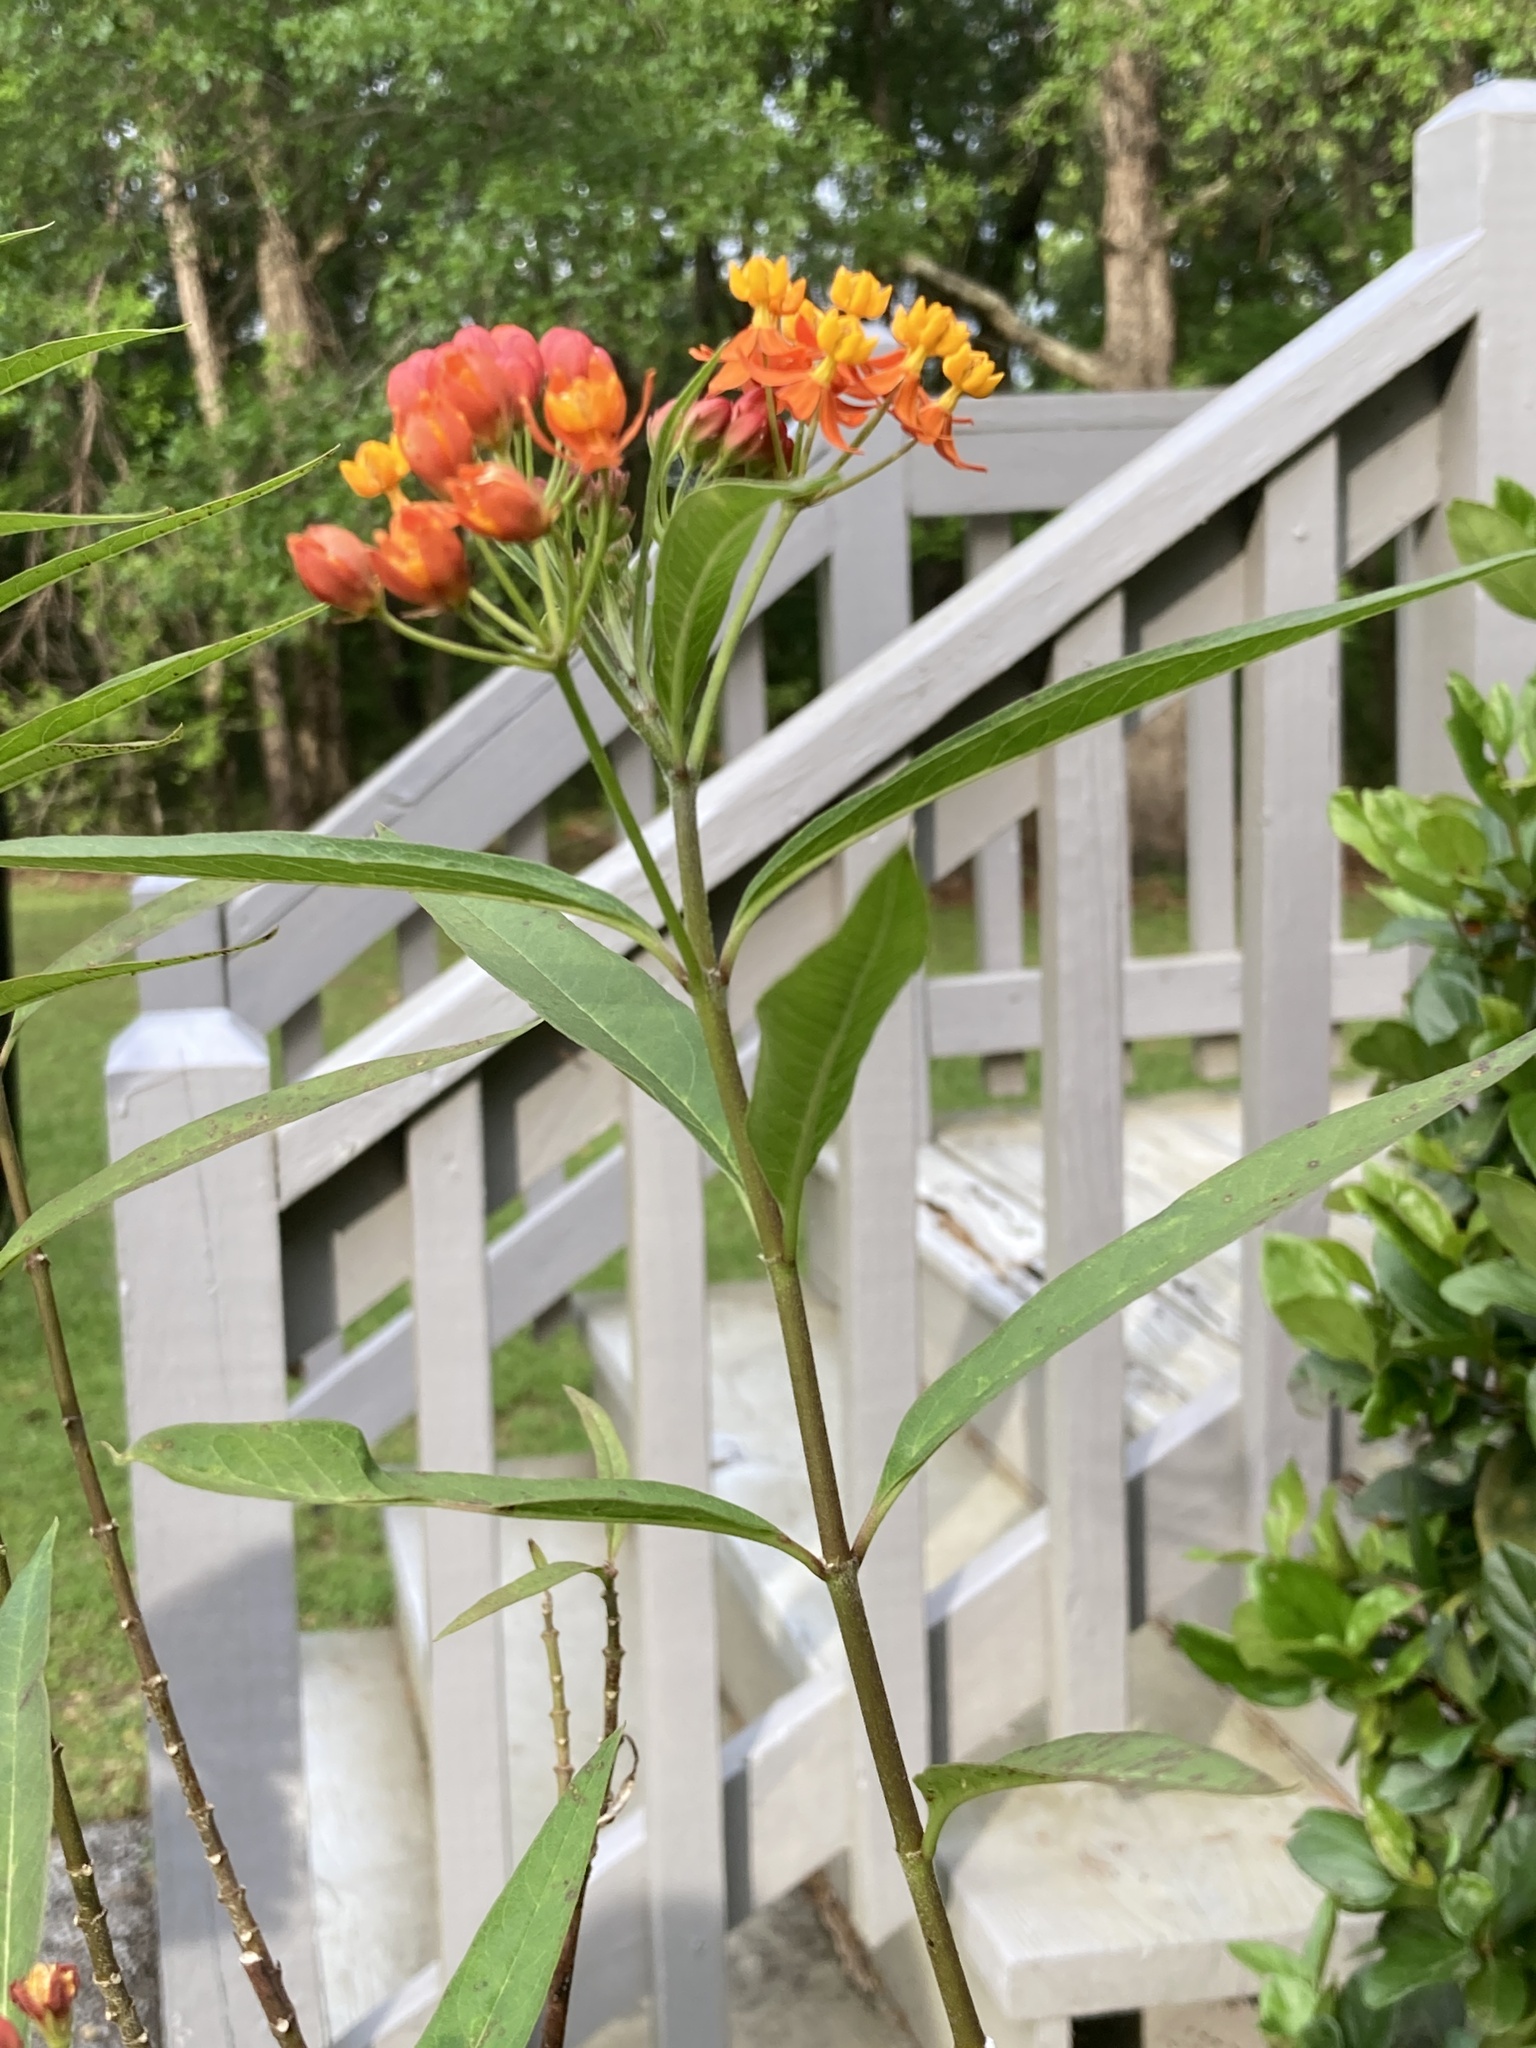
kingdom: Plantae
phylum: Tracheophyta
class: Magnoliopsida
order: Gentianales
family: Apocynaceae
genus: Asclepias
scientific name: Asclepias curassavica
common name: Bloodflower
